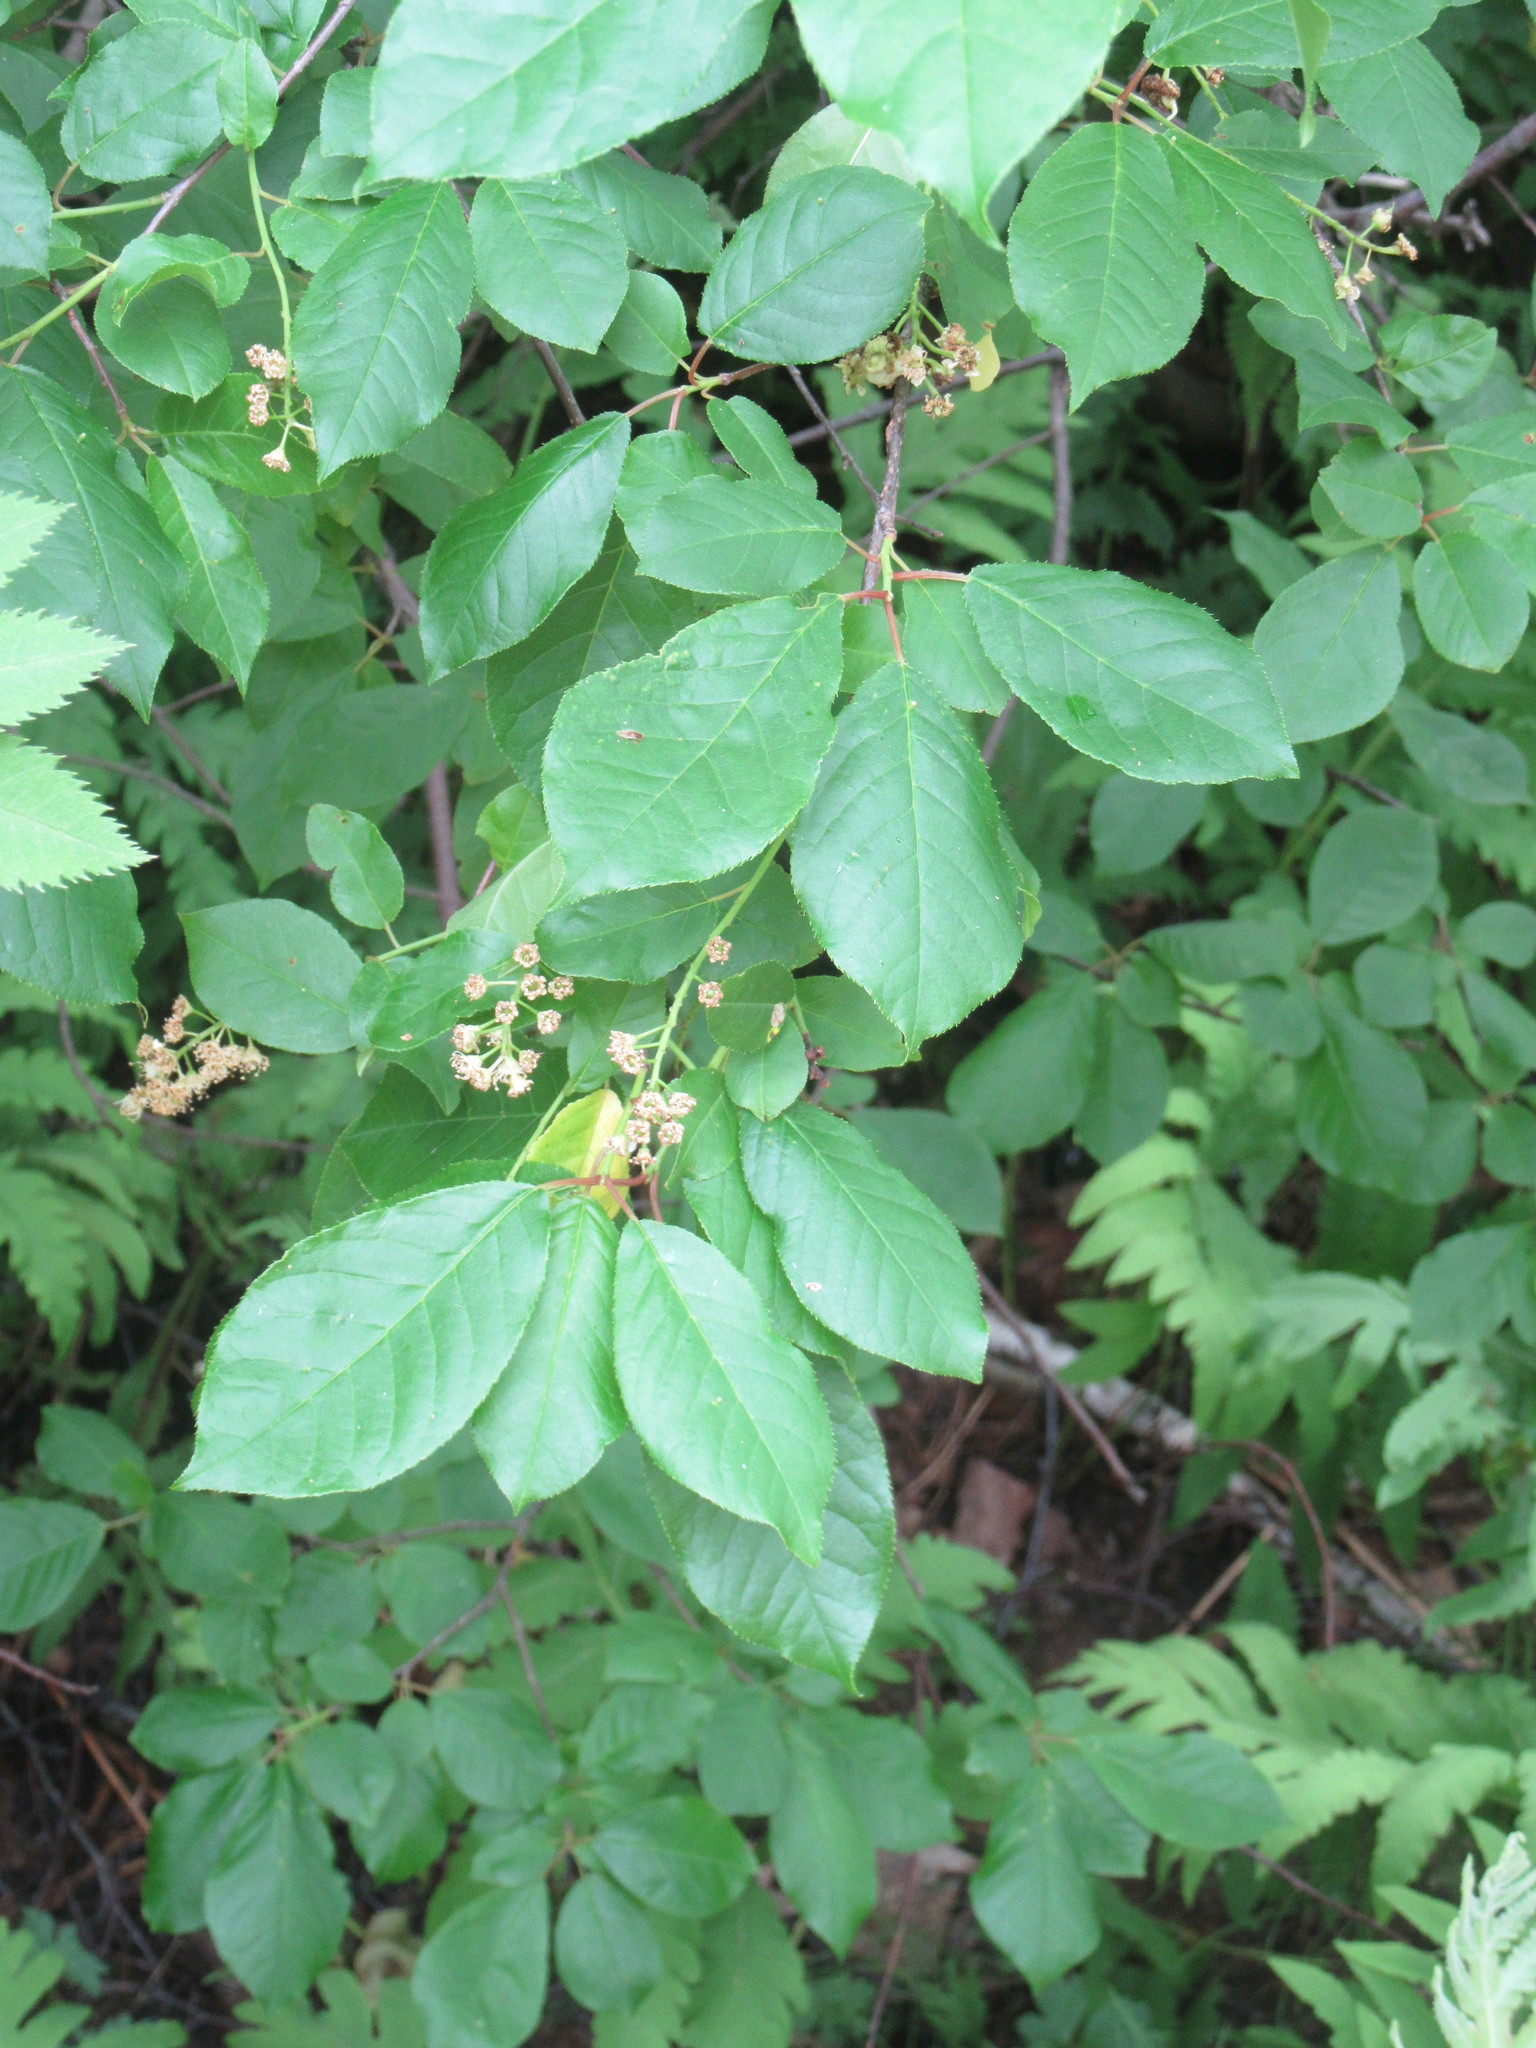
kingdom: Plantae
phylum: Tracheophyta
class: Magnoliopsida
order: Rosales
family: Rosaceae
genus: Prunus
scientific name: Prunus virginiana
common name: Chokecherry
